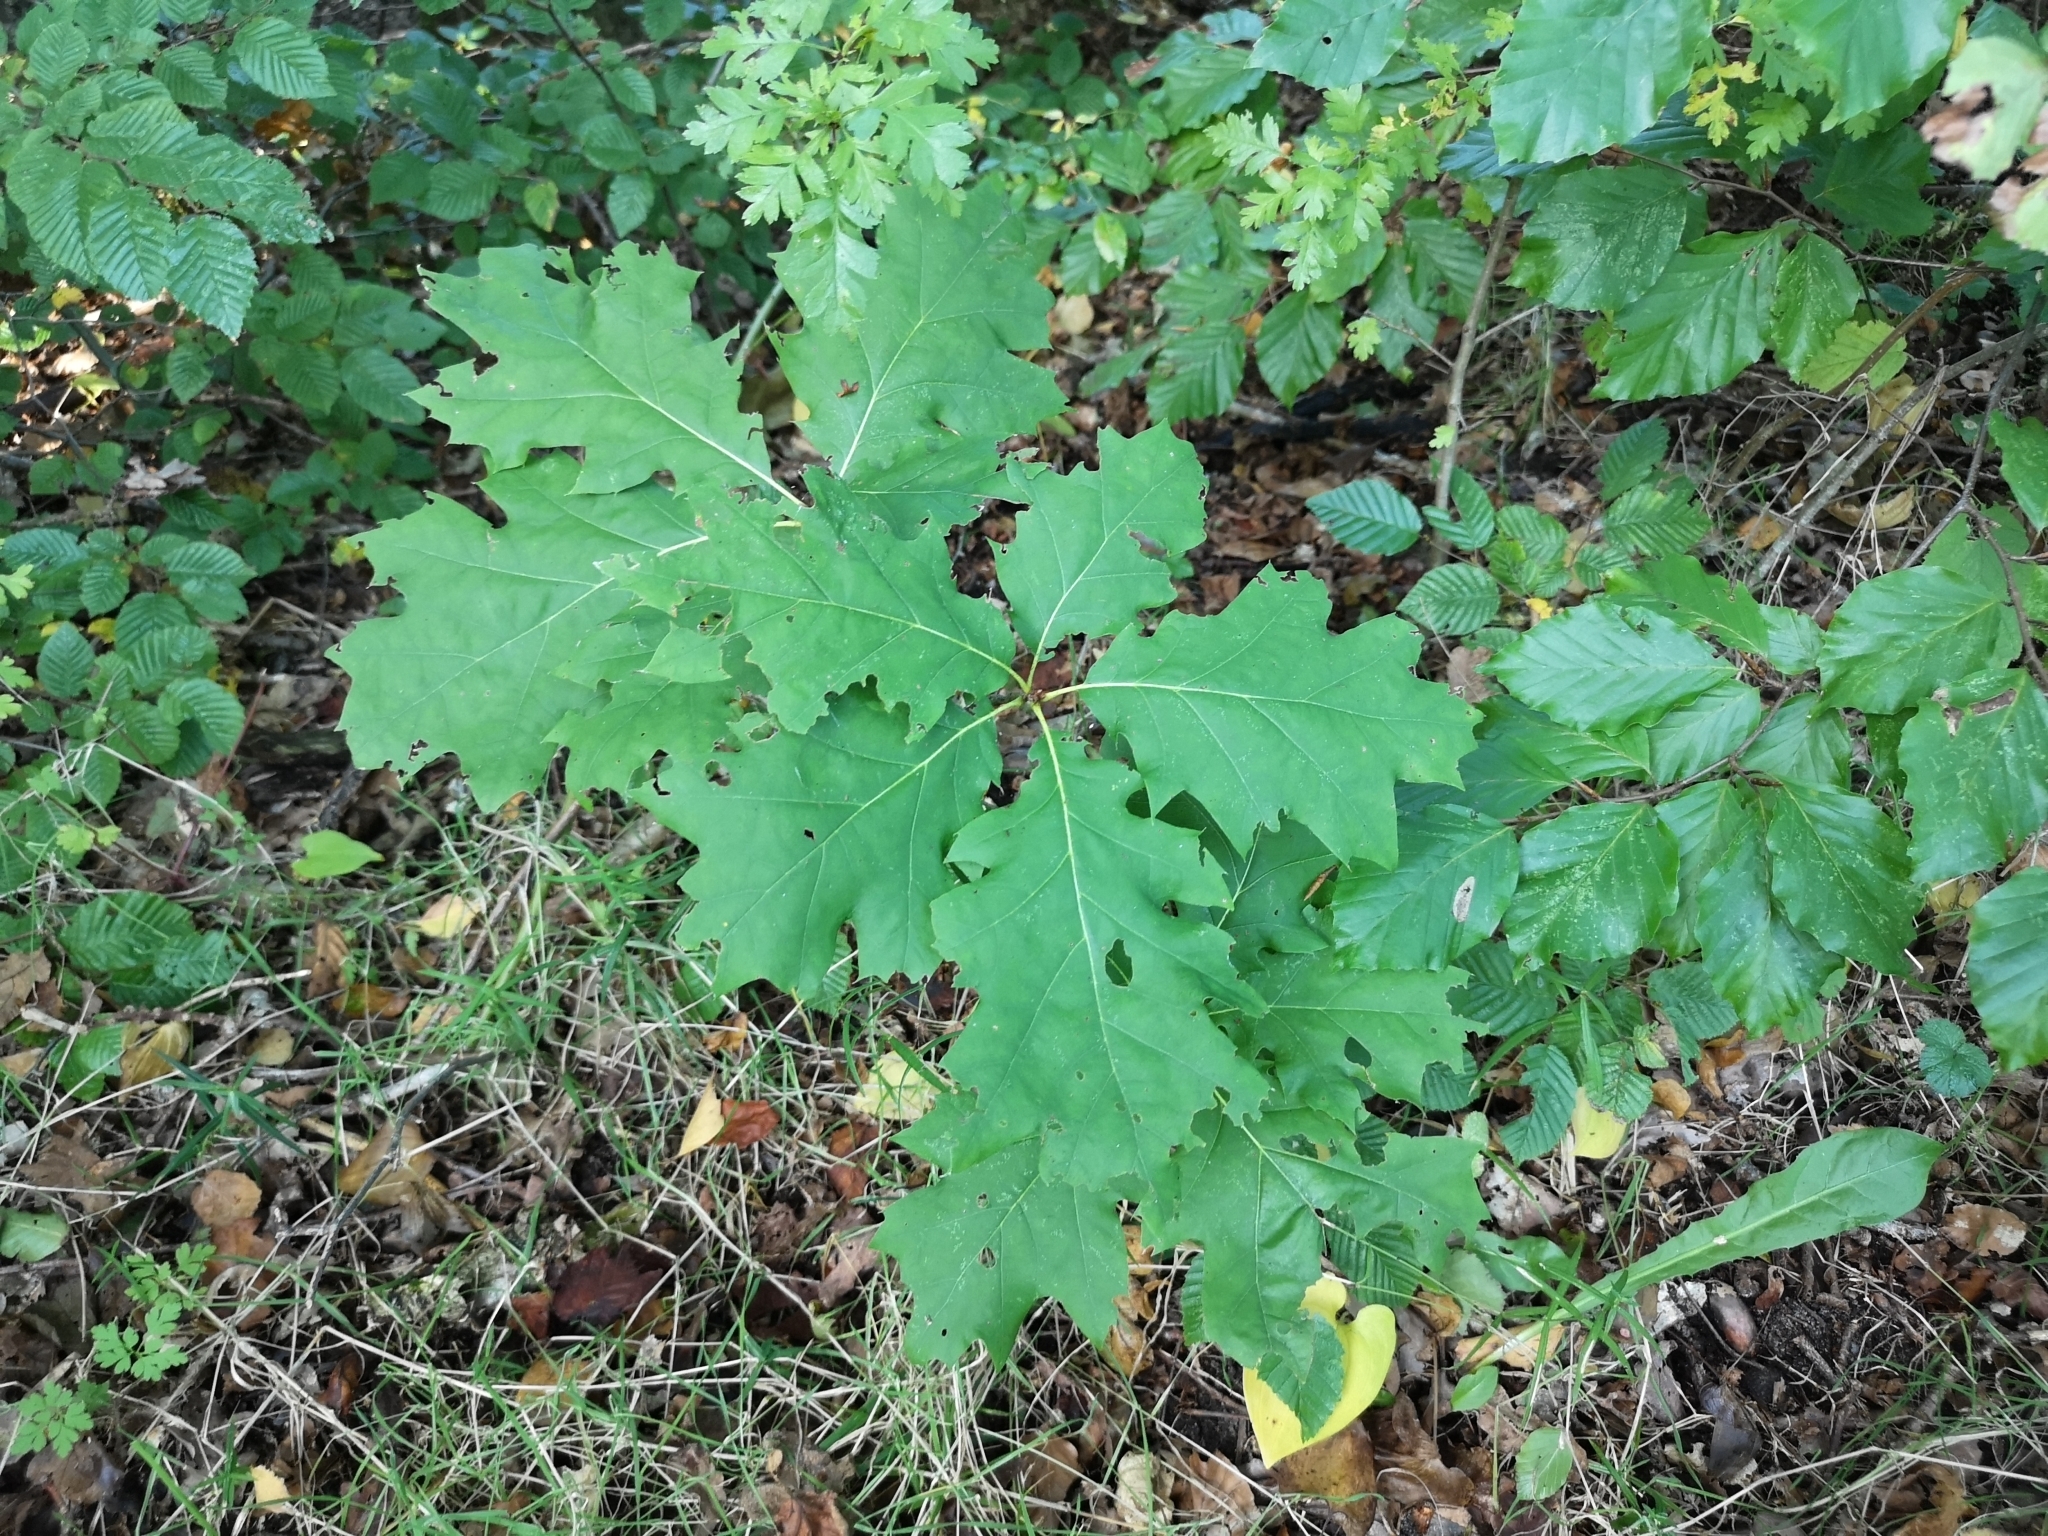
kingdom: Plantae
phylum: Tracheophyta
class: Magnoliopsida
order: Fagales
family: Fagaceae
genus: Quercus
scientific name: Quercus rubra
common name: Red oak
